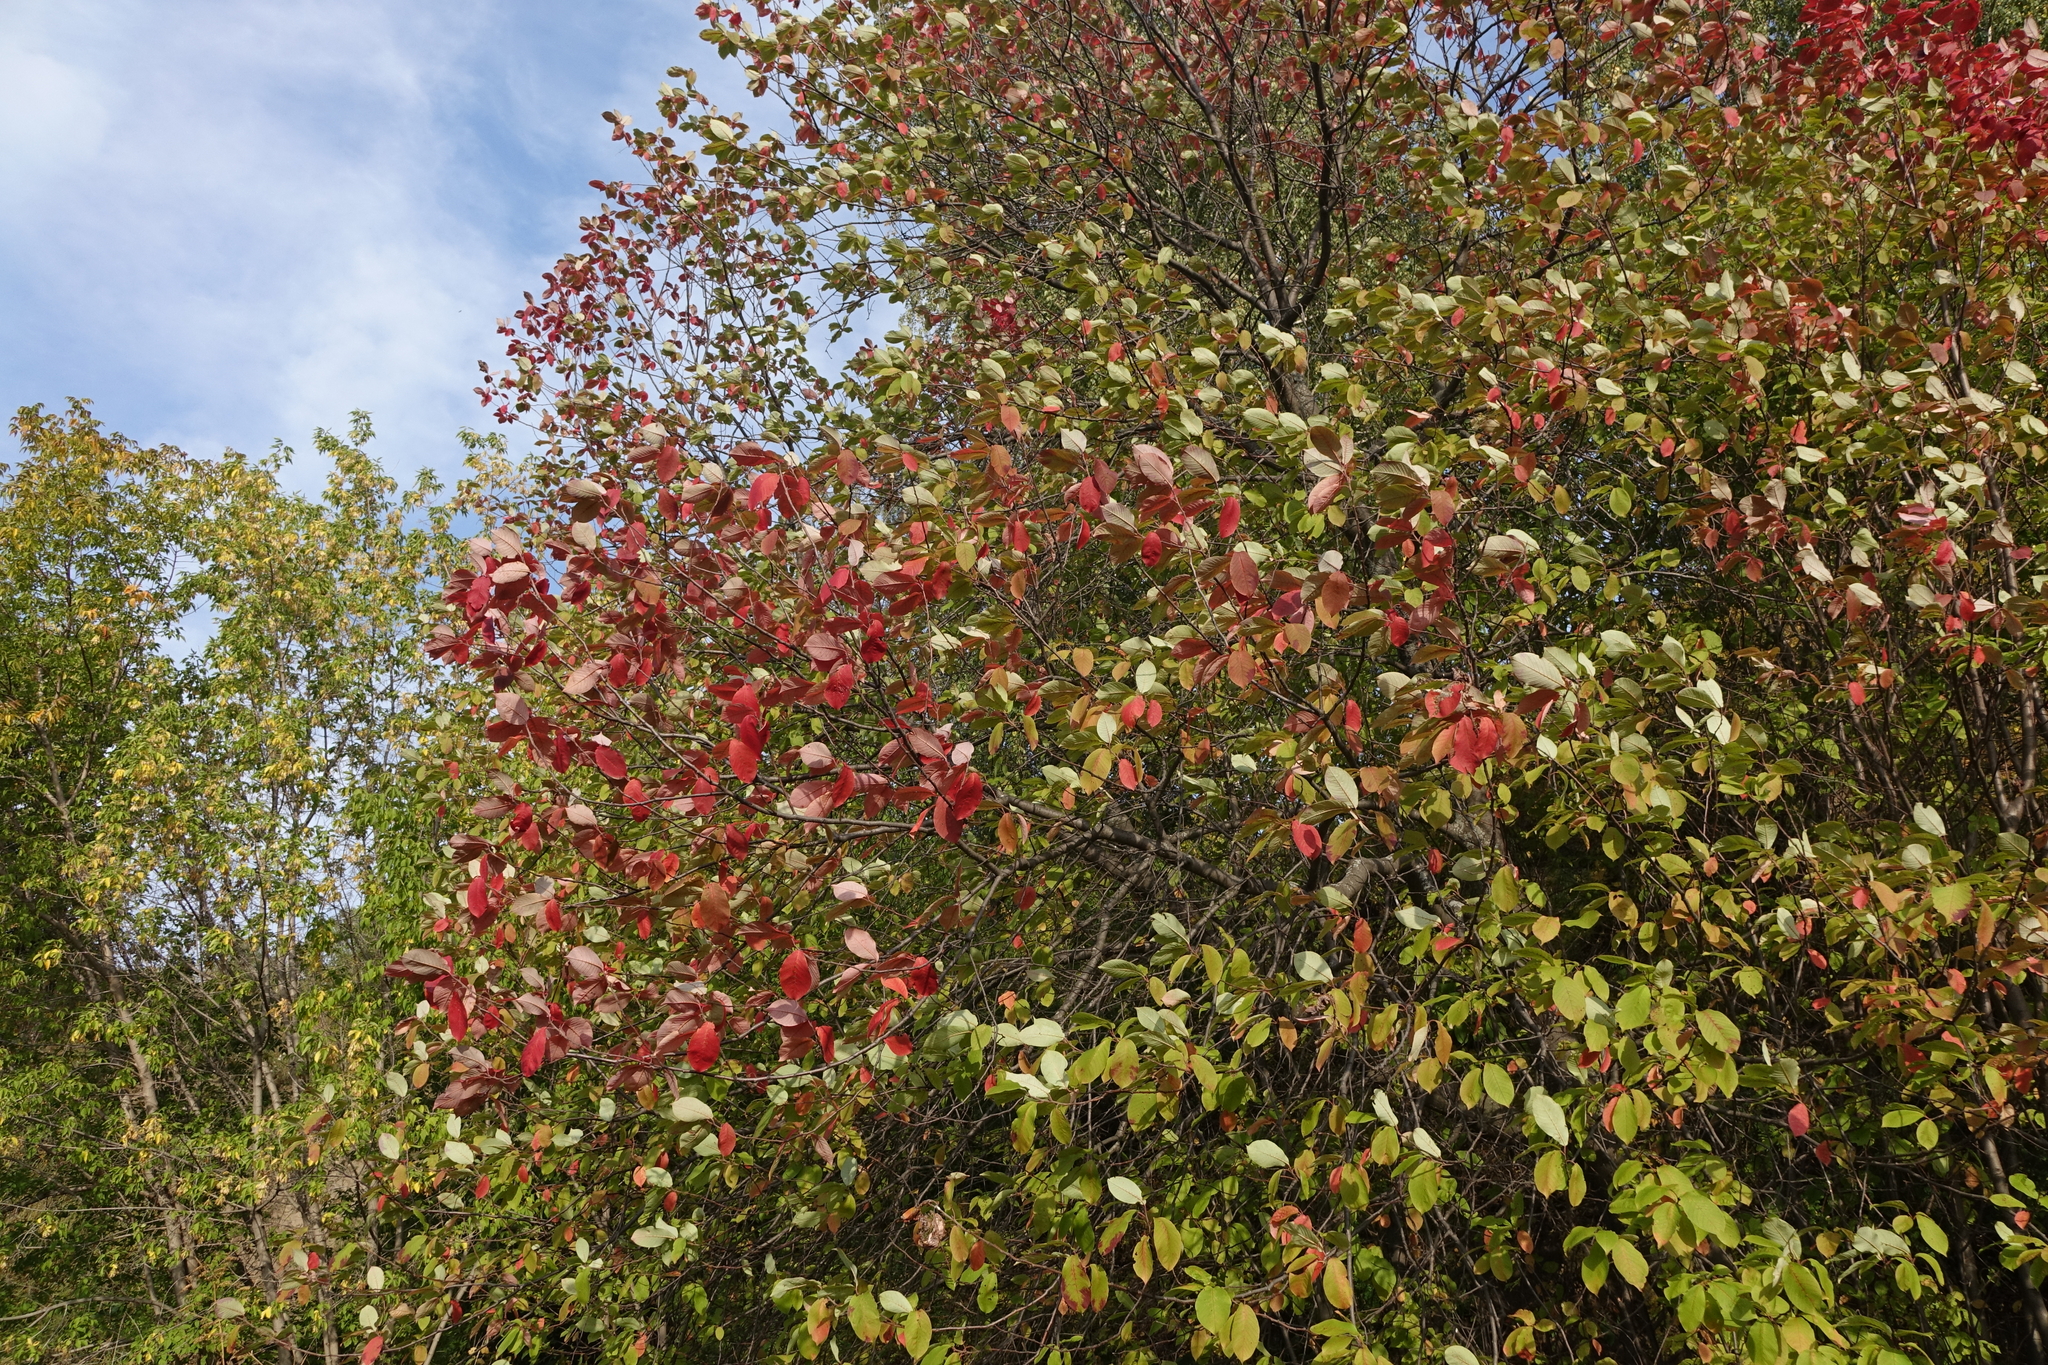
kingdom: Plantae
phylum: Tracheophyta
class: Magnoliopsida
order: Rosales
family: Rosaceae
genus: Prunus
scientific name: Prunus padus
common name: Bird cherry
